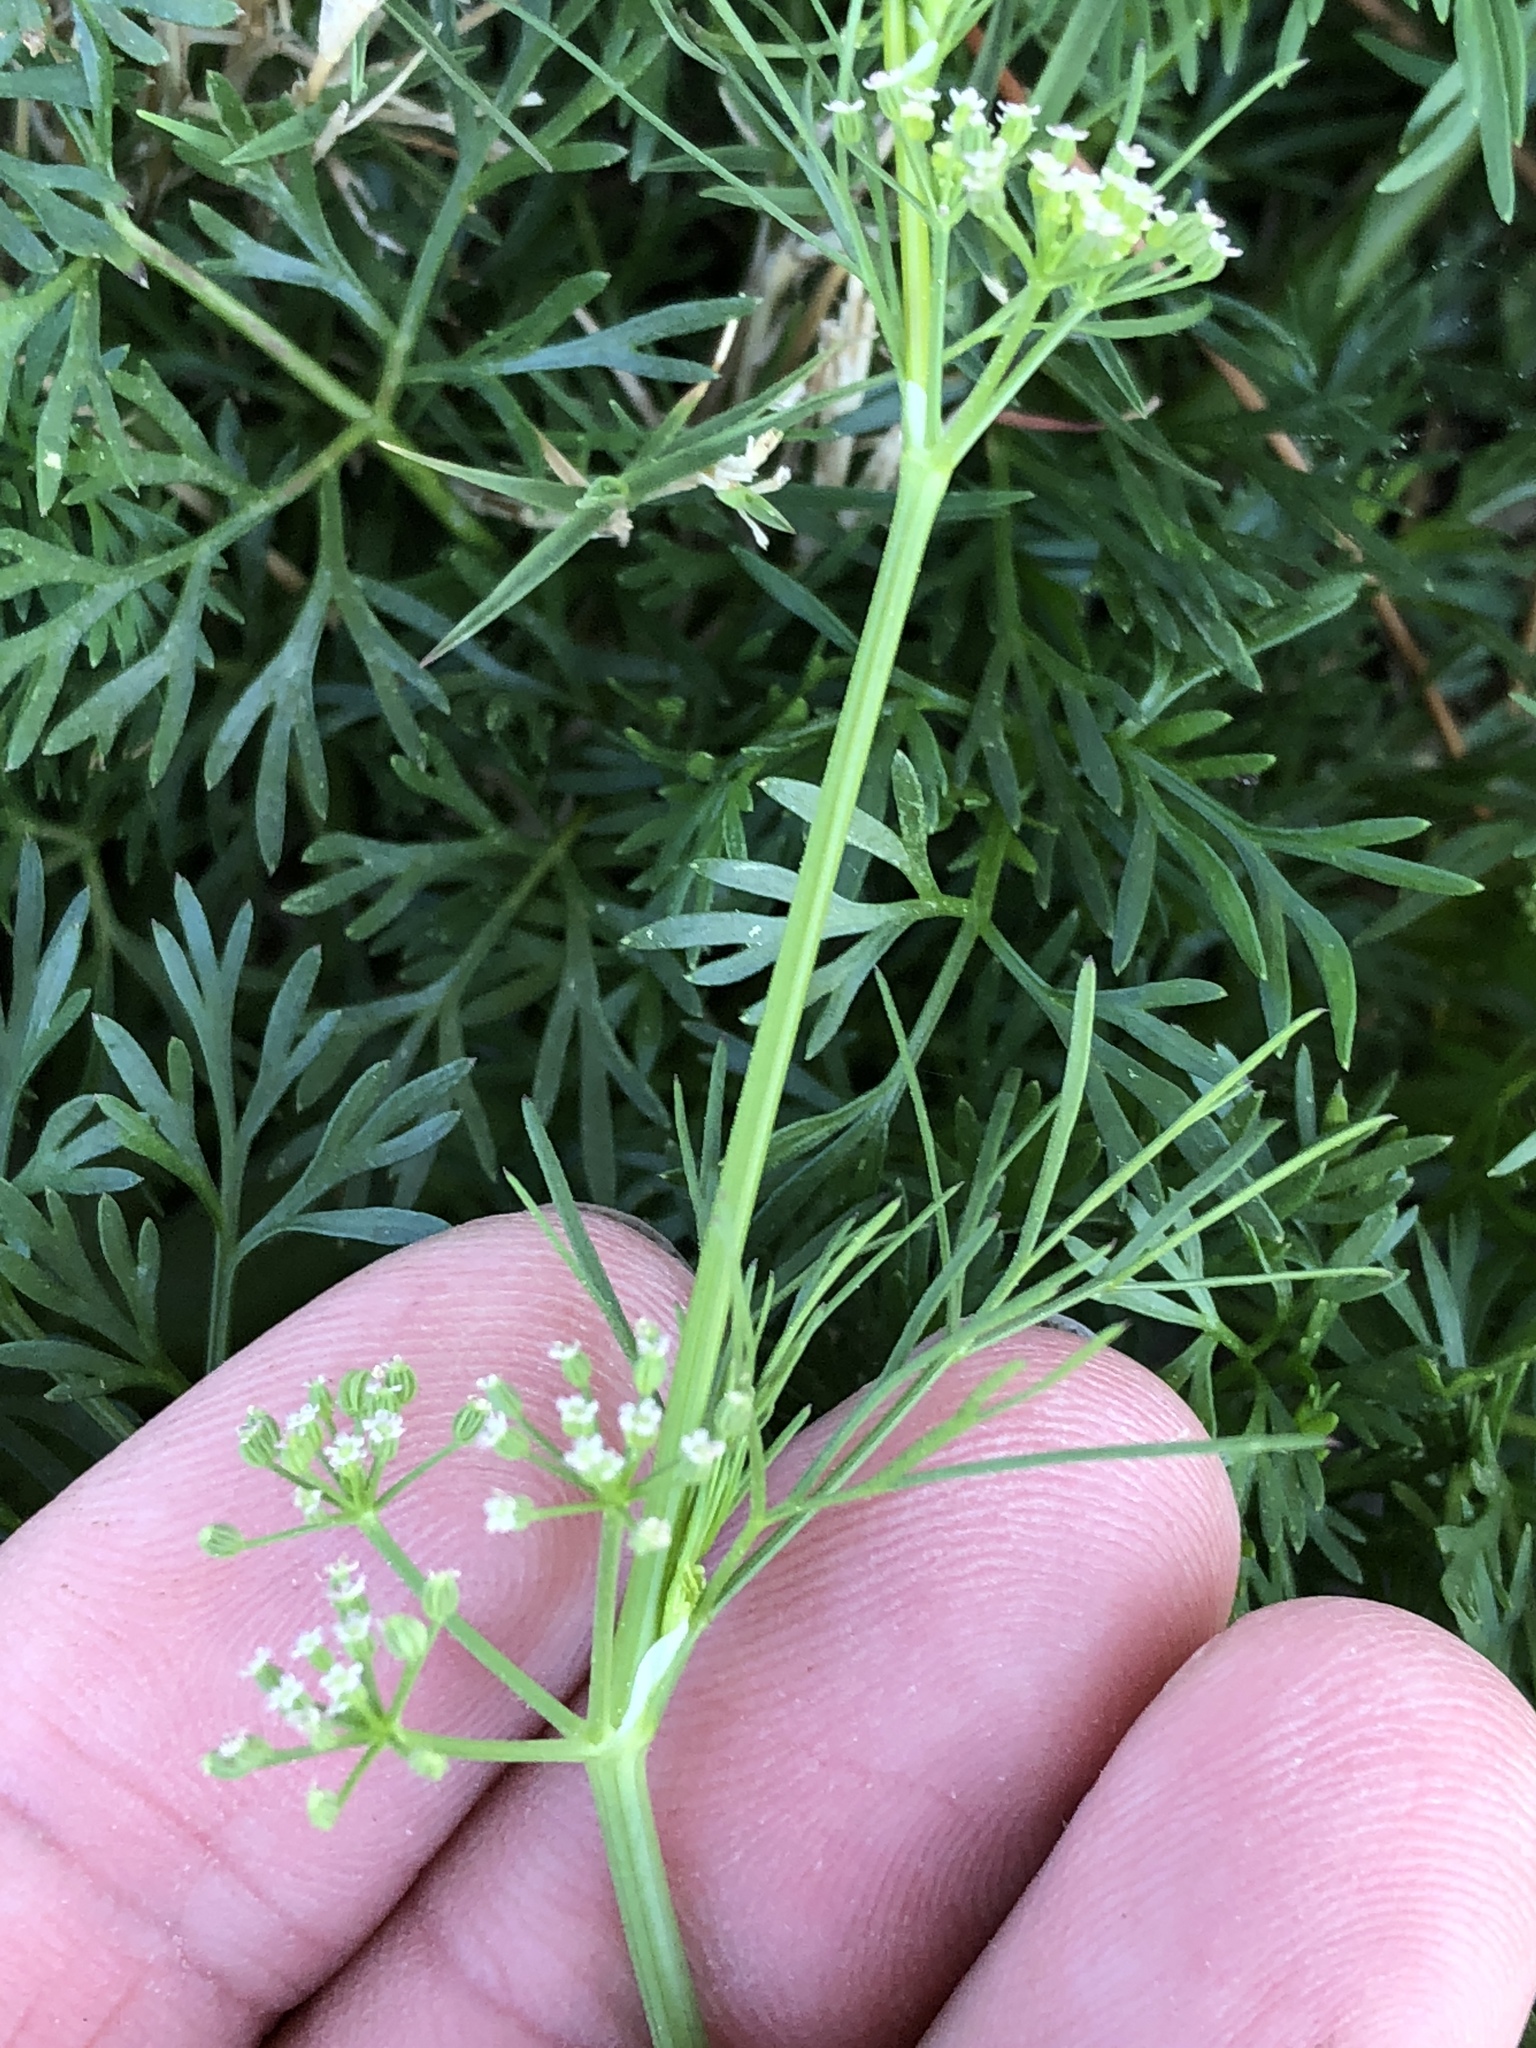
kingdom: Plantae
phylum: Tracheophyta
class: Magnoliopsida
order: Apiales
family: Apiaceae
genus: Cyclospermum
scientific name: Cyclospermum leptophyllum
